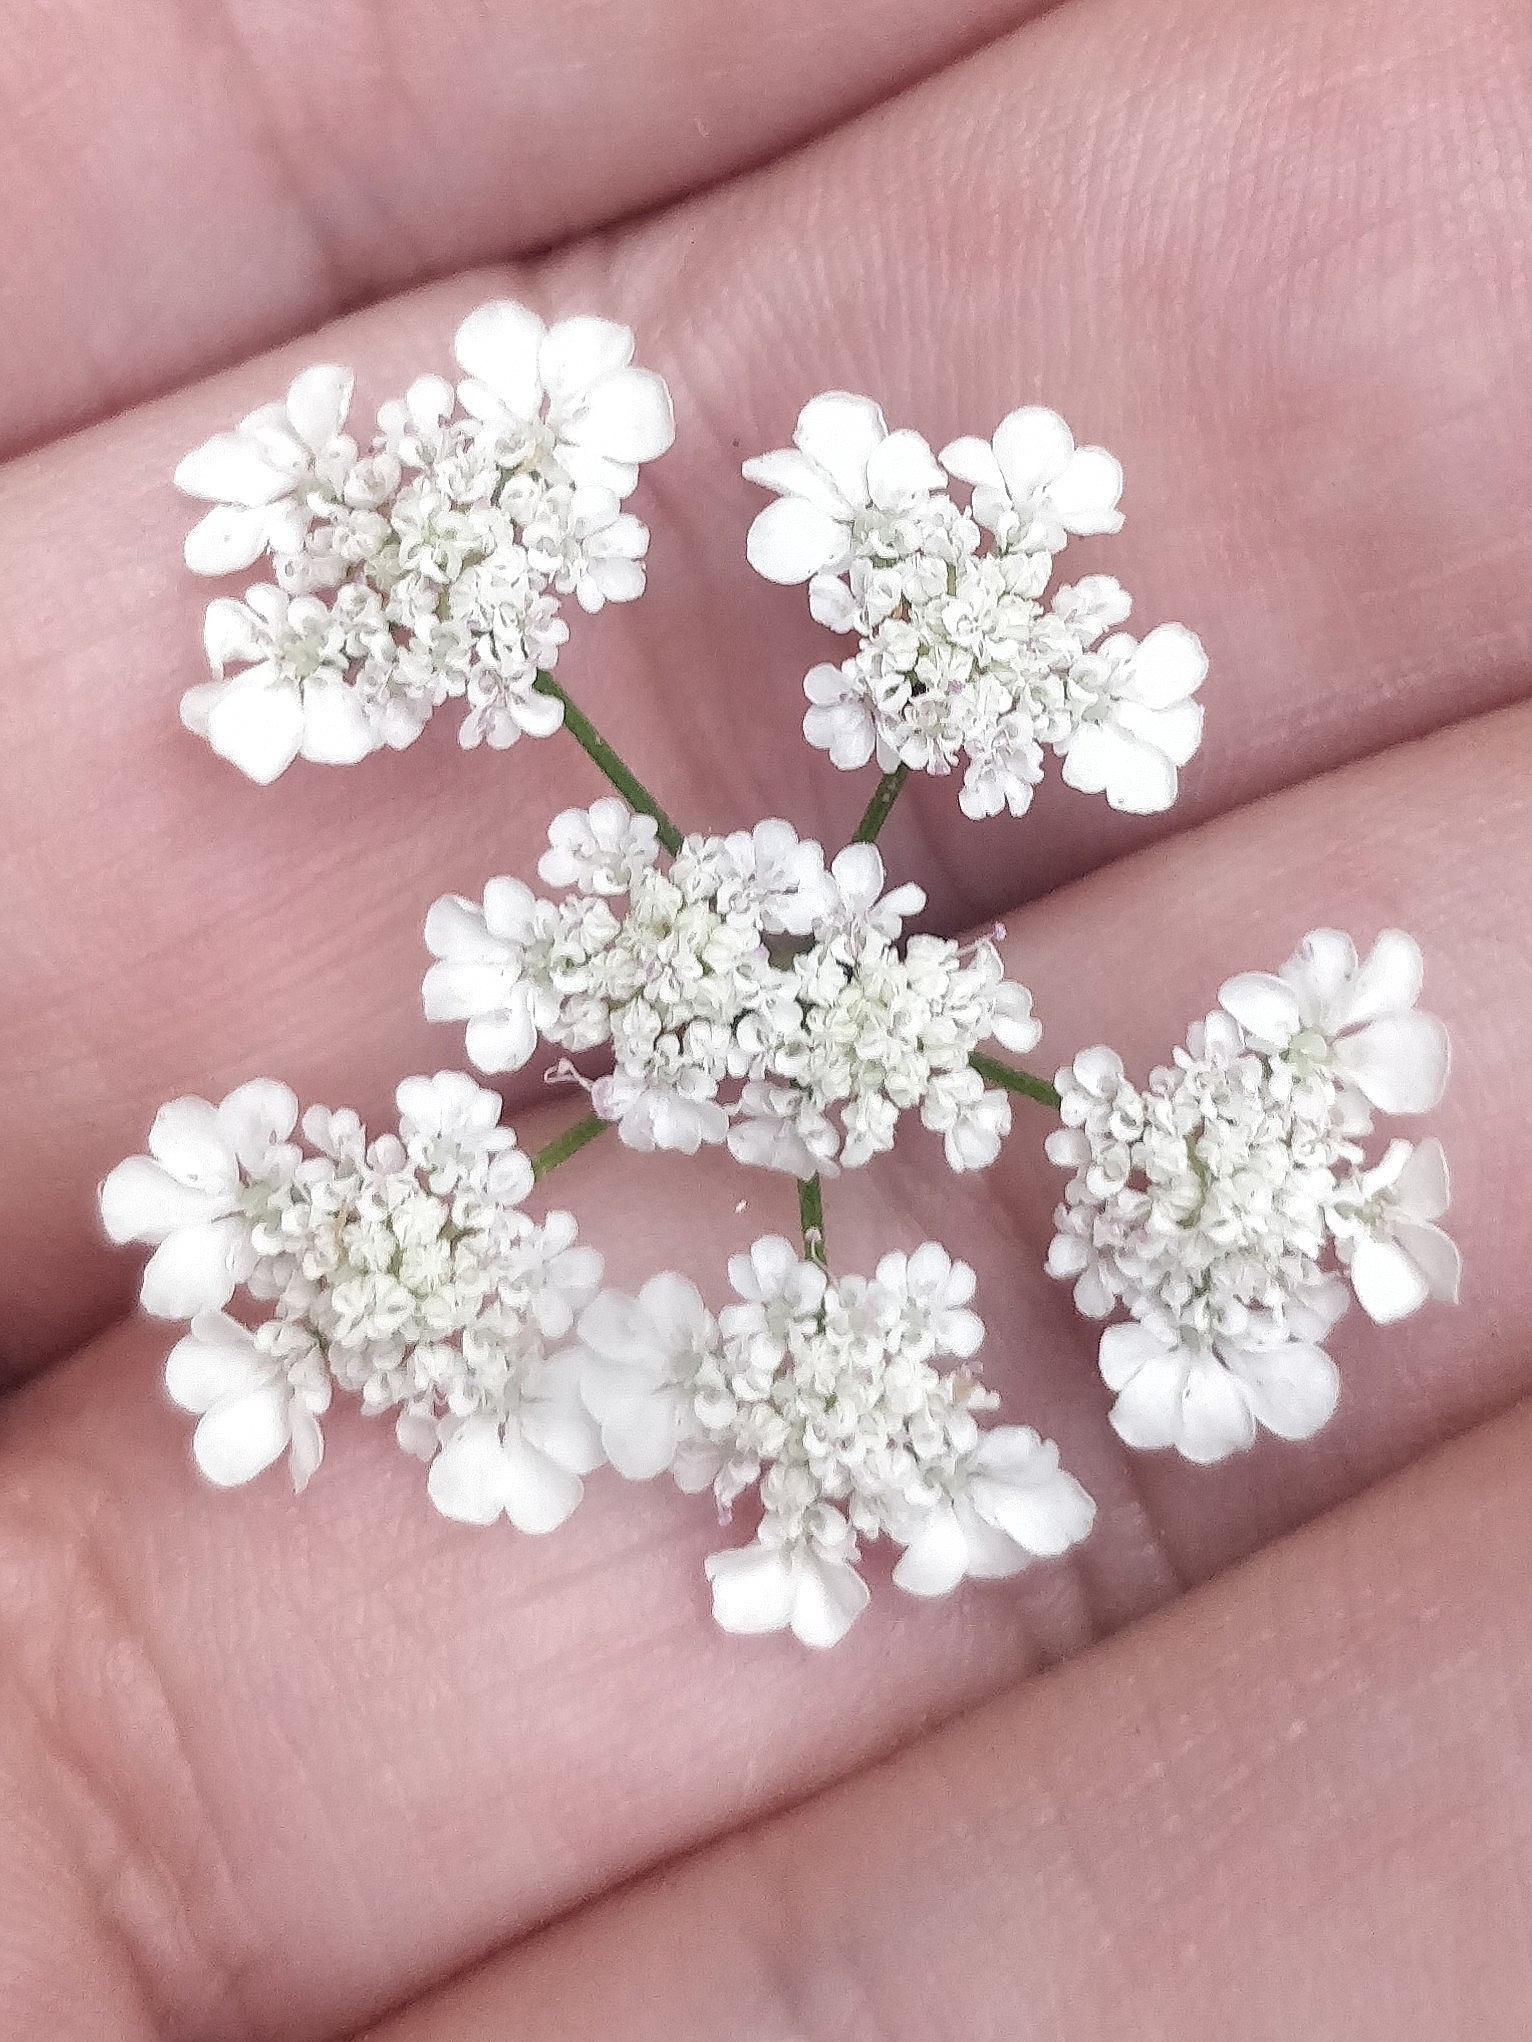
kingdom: Plantae
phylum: Tracheophyta
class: Magnoliopsida
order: Apiales
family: Apiaceae
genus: Torilis
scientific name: Torilis arvensis
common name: Spreading hedge-parsley
